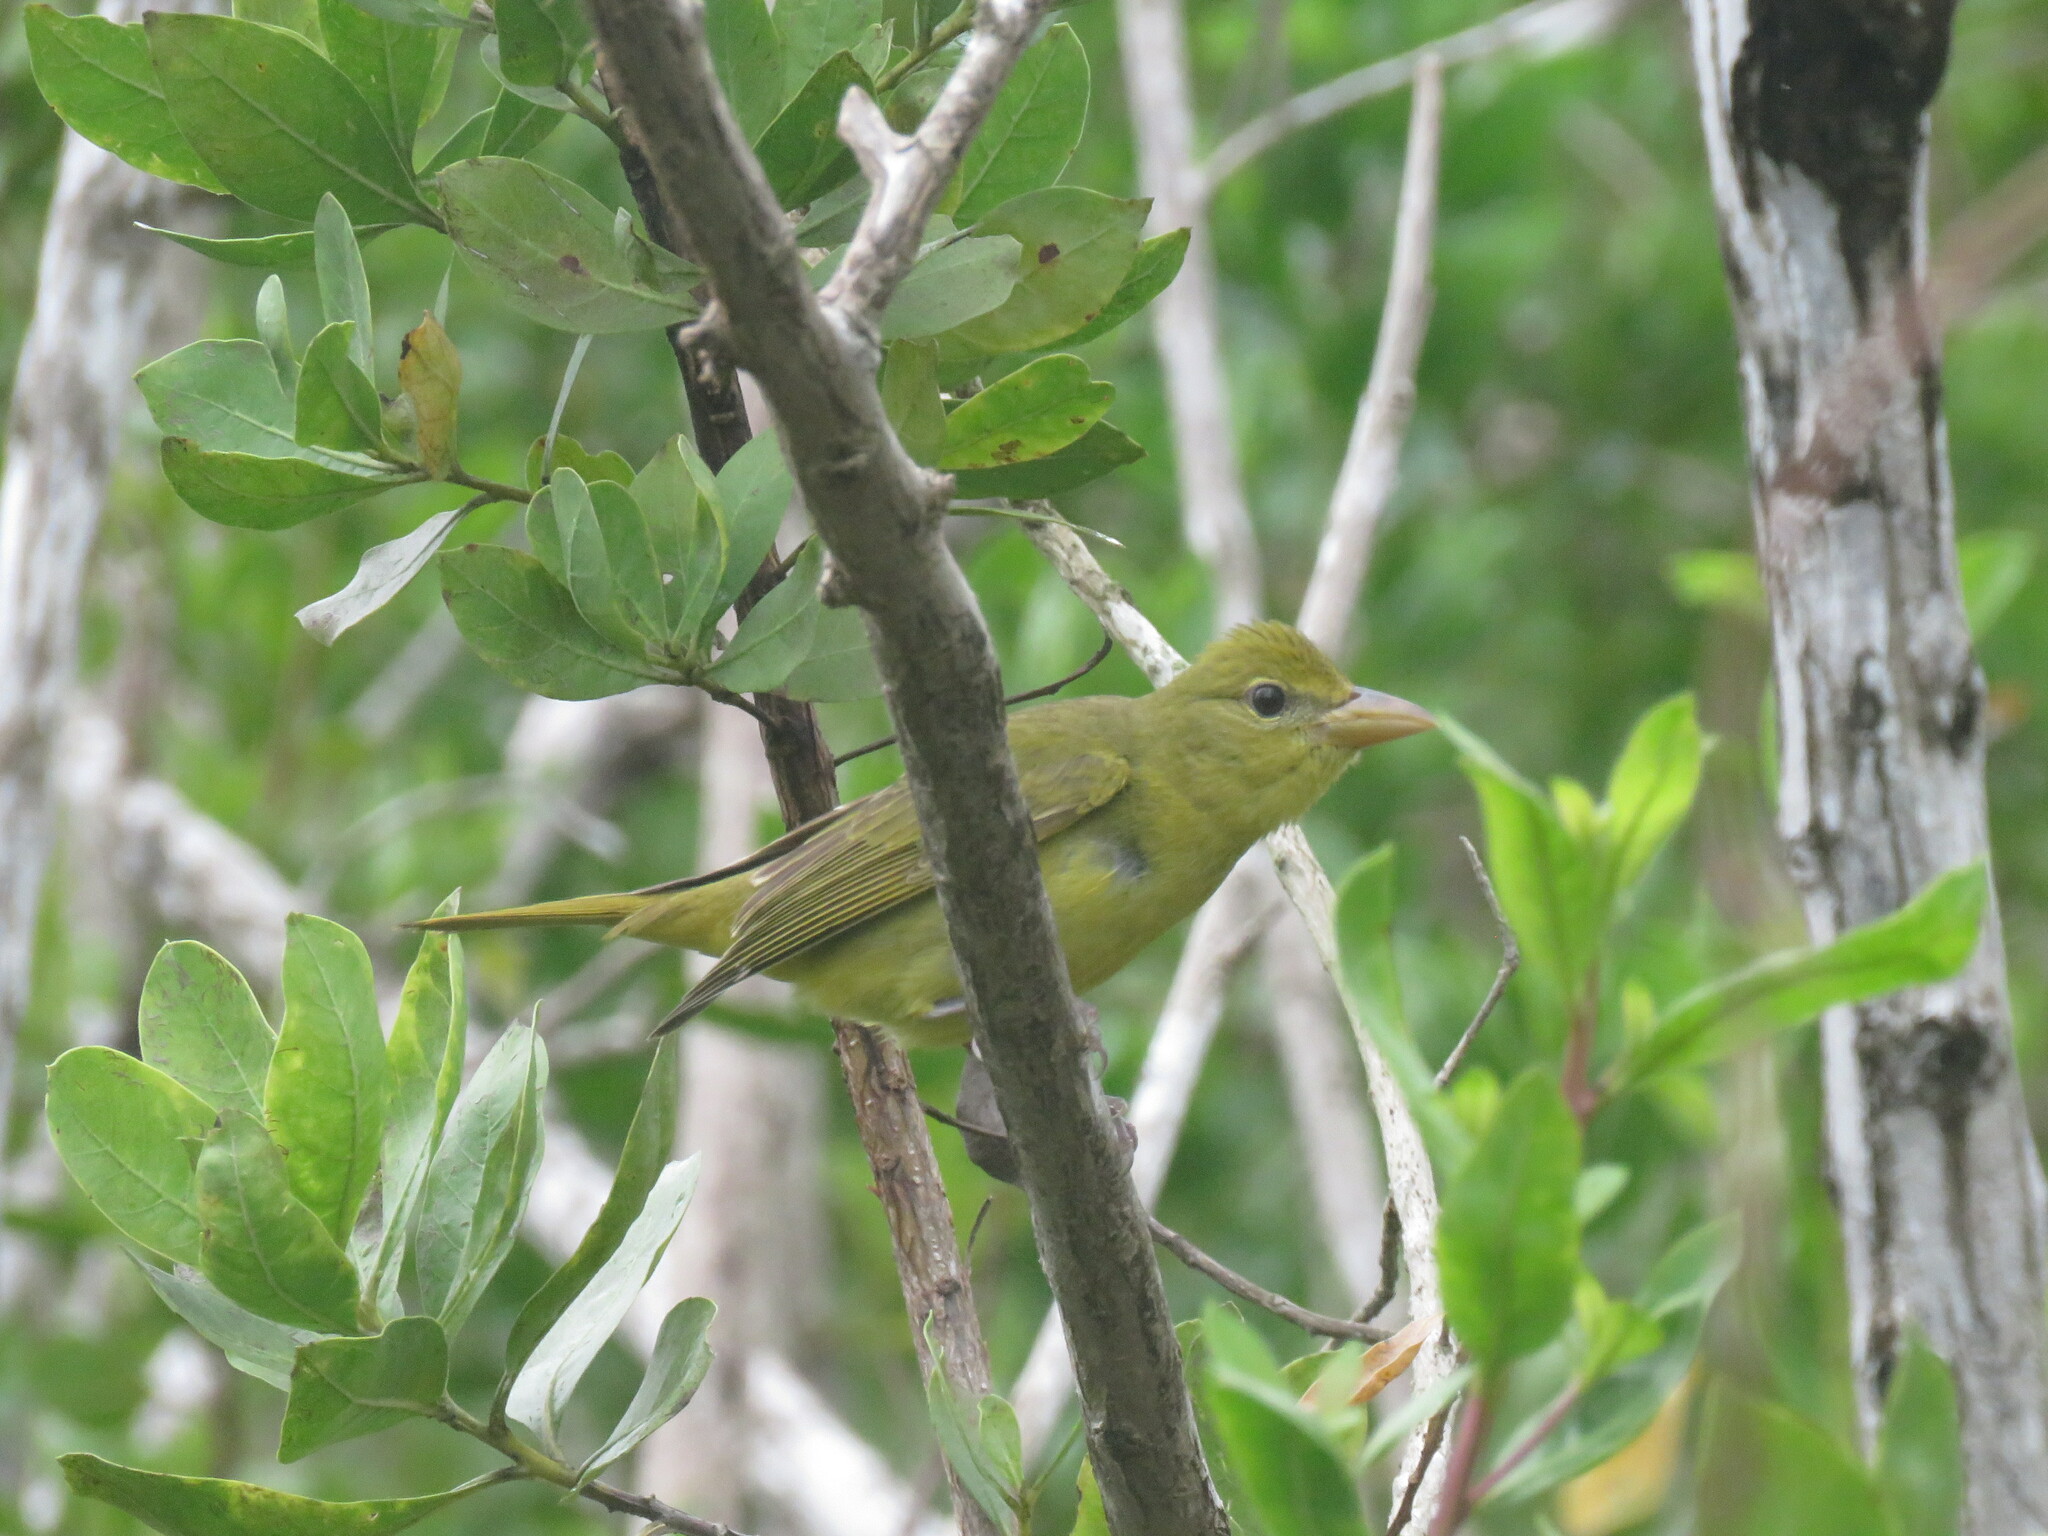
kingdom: Animalia
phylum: Chordata
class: Aves
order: Passeriformes
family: Cardinalidae
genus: Piranga
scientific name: Piranga rubra
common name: Summer tanager
